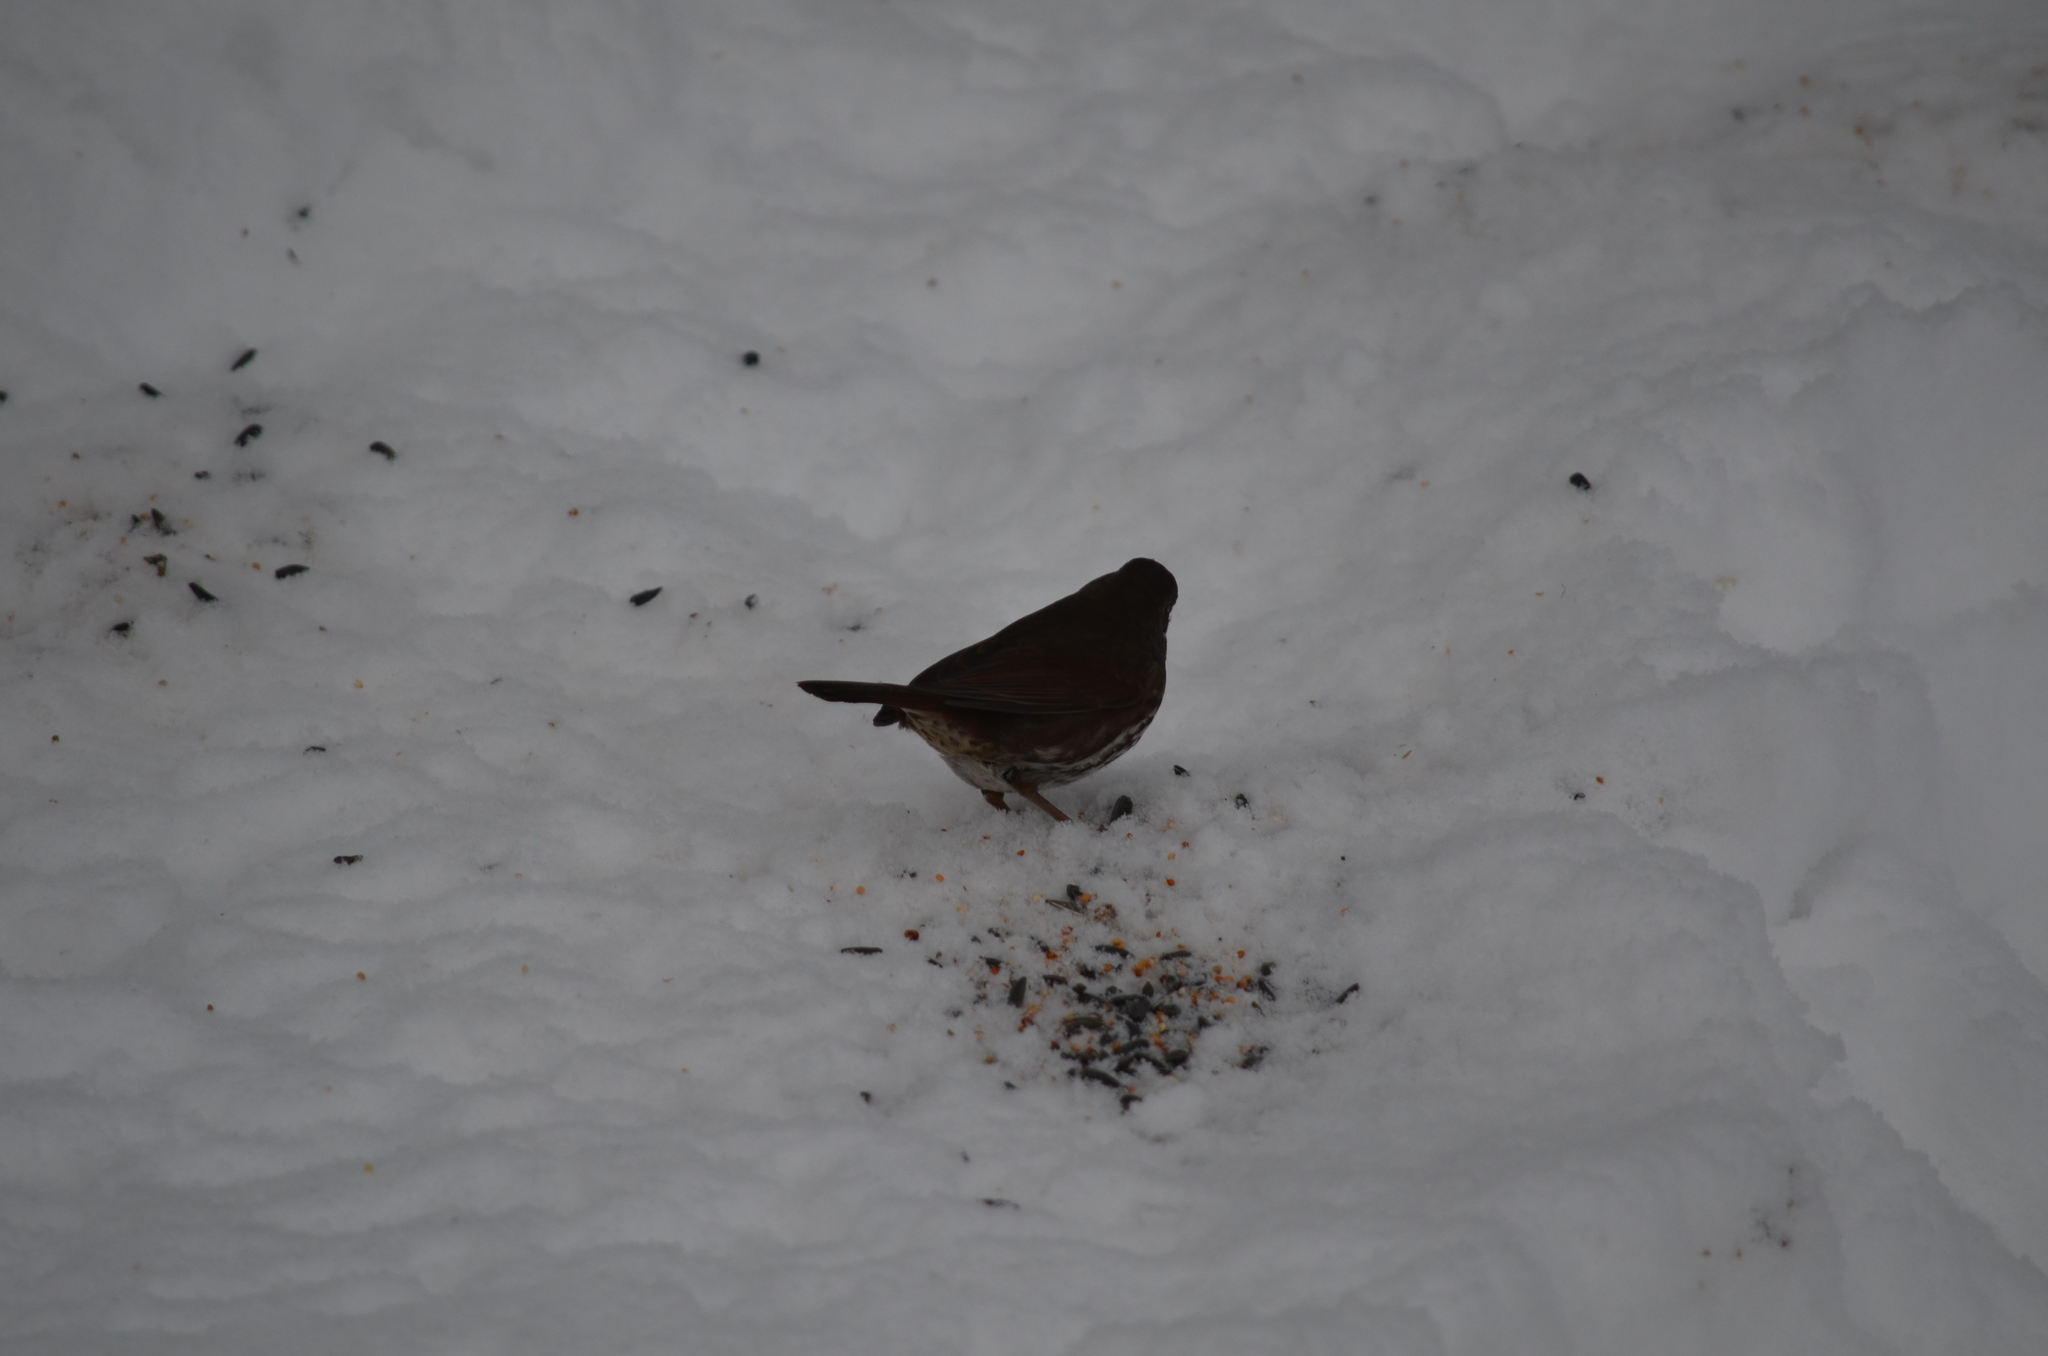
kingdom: Animalia
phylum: Chordata
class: Aves
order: Passeriformes
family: Passerellidae
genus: Passerella
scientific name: Passerella iliaca
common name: Fox sparrow
